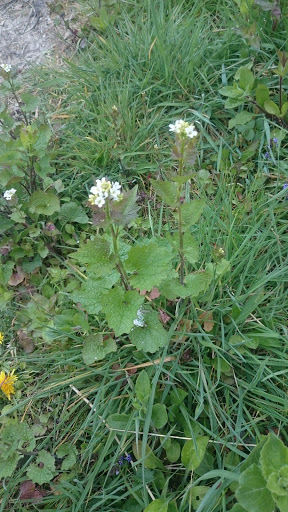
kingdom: Plantae
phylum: Tracheophyta
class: Magnoliopsida
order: Brassicales
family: Brassicaceae
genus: Alliaria
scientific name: Alliaria petiolata
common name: Garlic mustard
